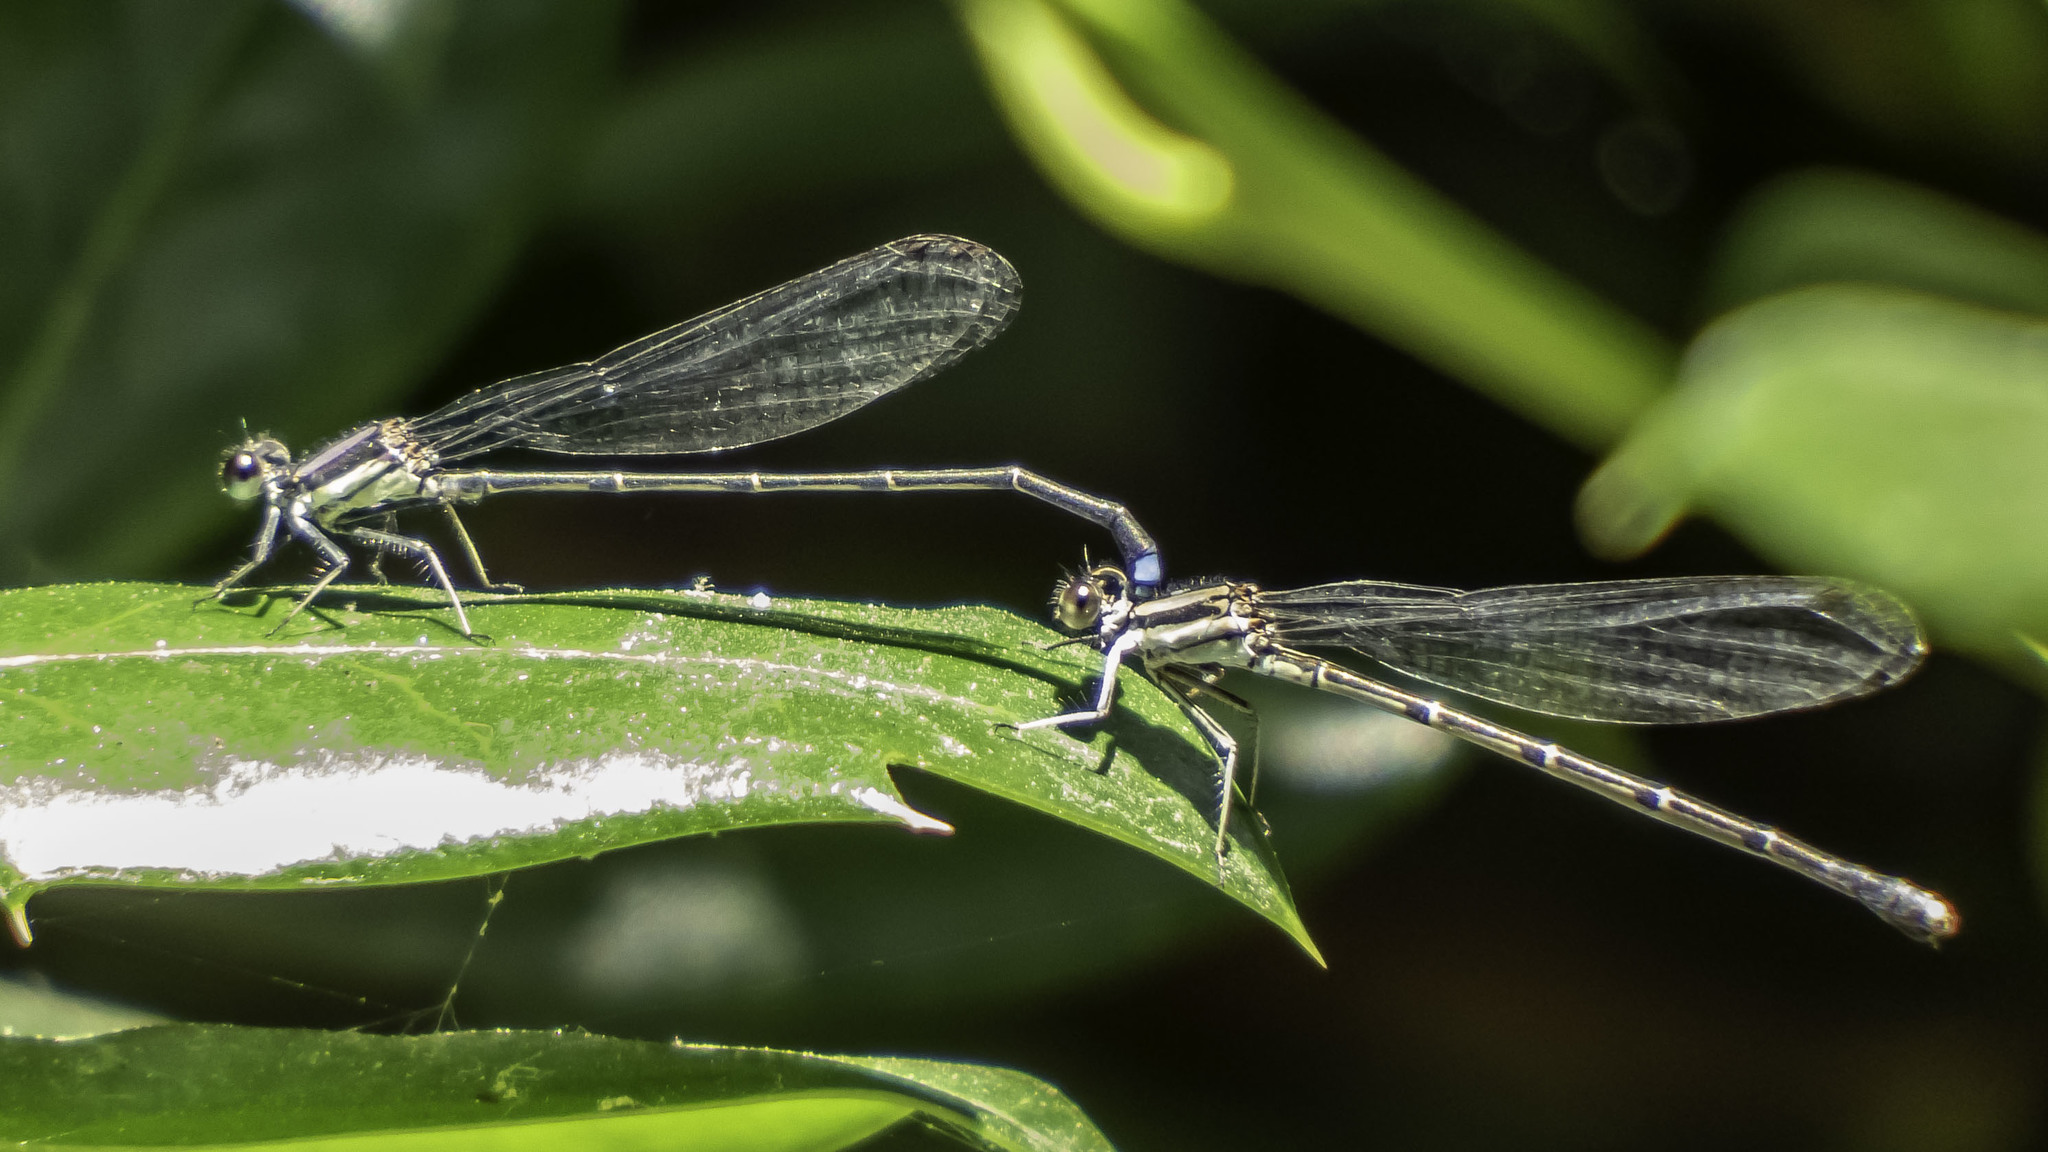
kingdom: Animalia
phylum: Arthropoda
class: Insecta
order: Odonata
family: Coenagrionidae
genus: Argia
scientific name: Argia tibialis
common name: Blue-tipped dancer
